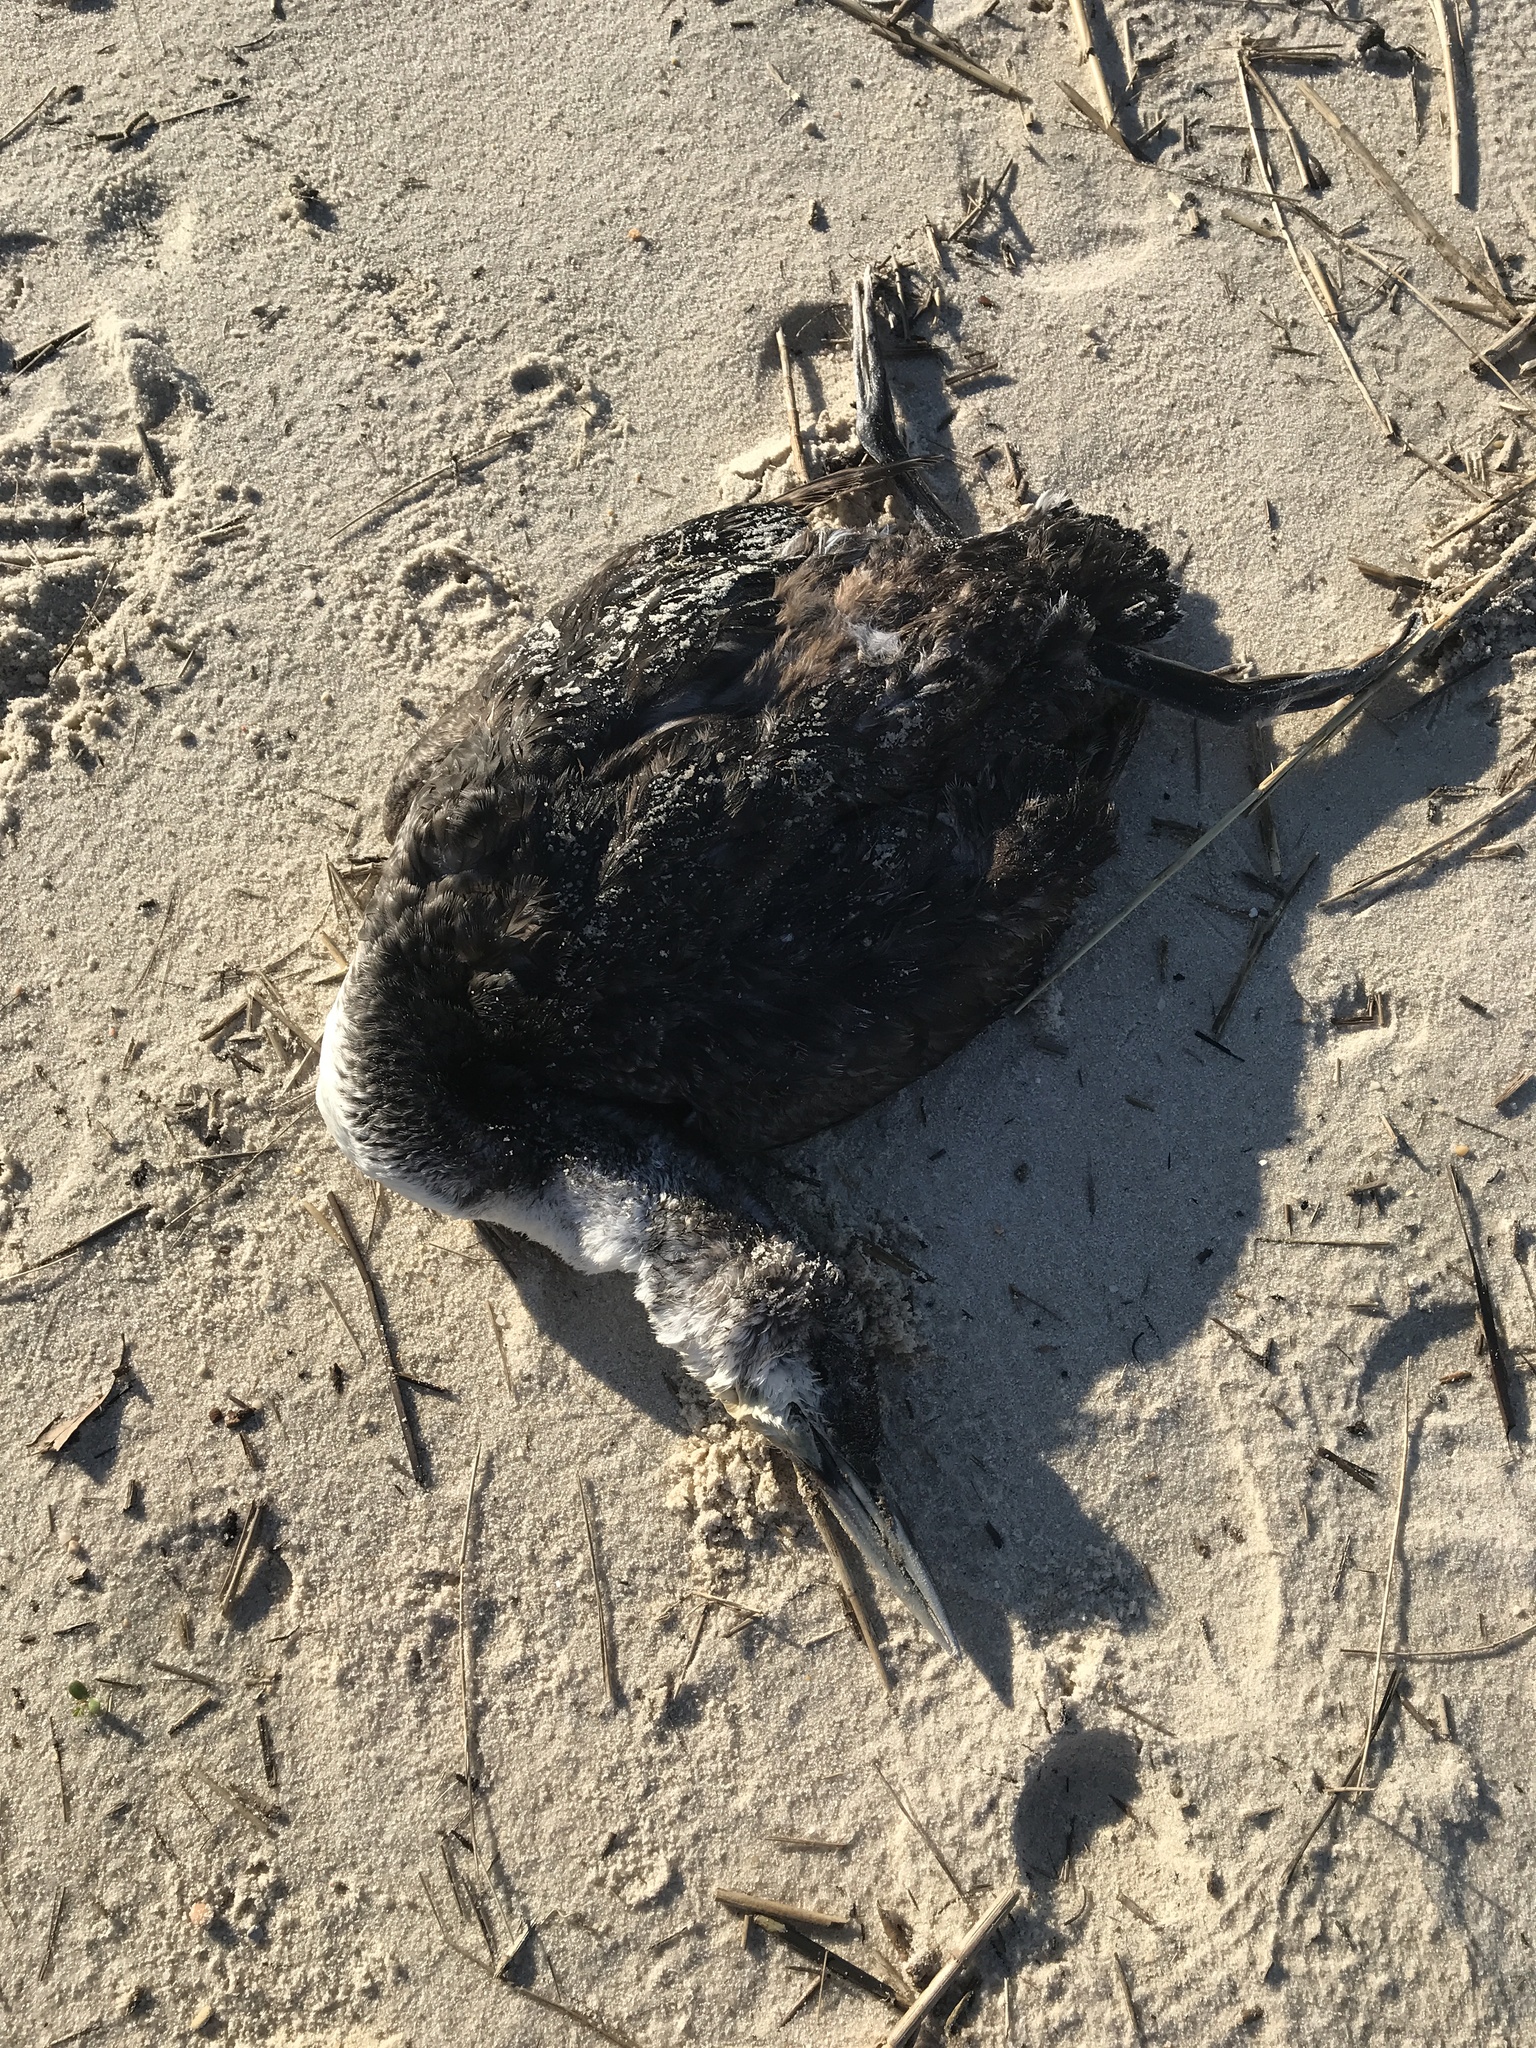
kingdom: Animalia
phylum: Chordata
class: Aves
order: Gaviiformes
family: Gaviidae
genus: Gavia
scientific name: Gavia immer
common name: Common loon
